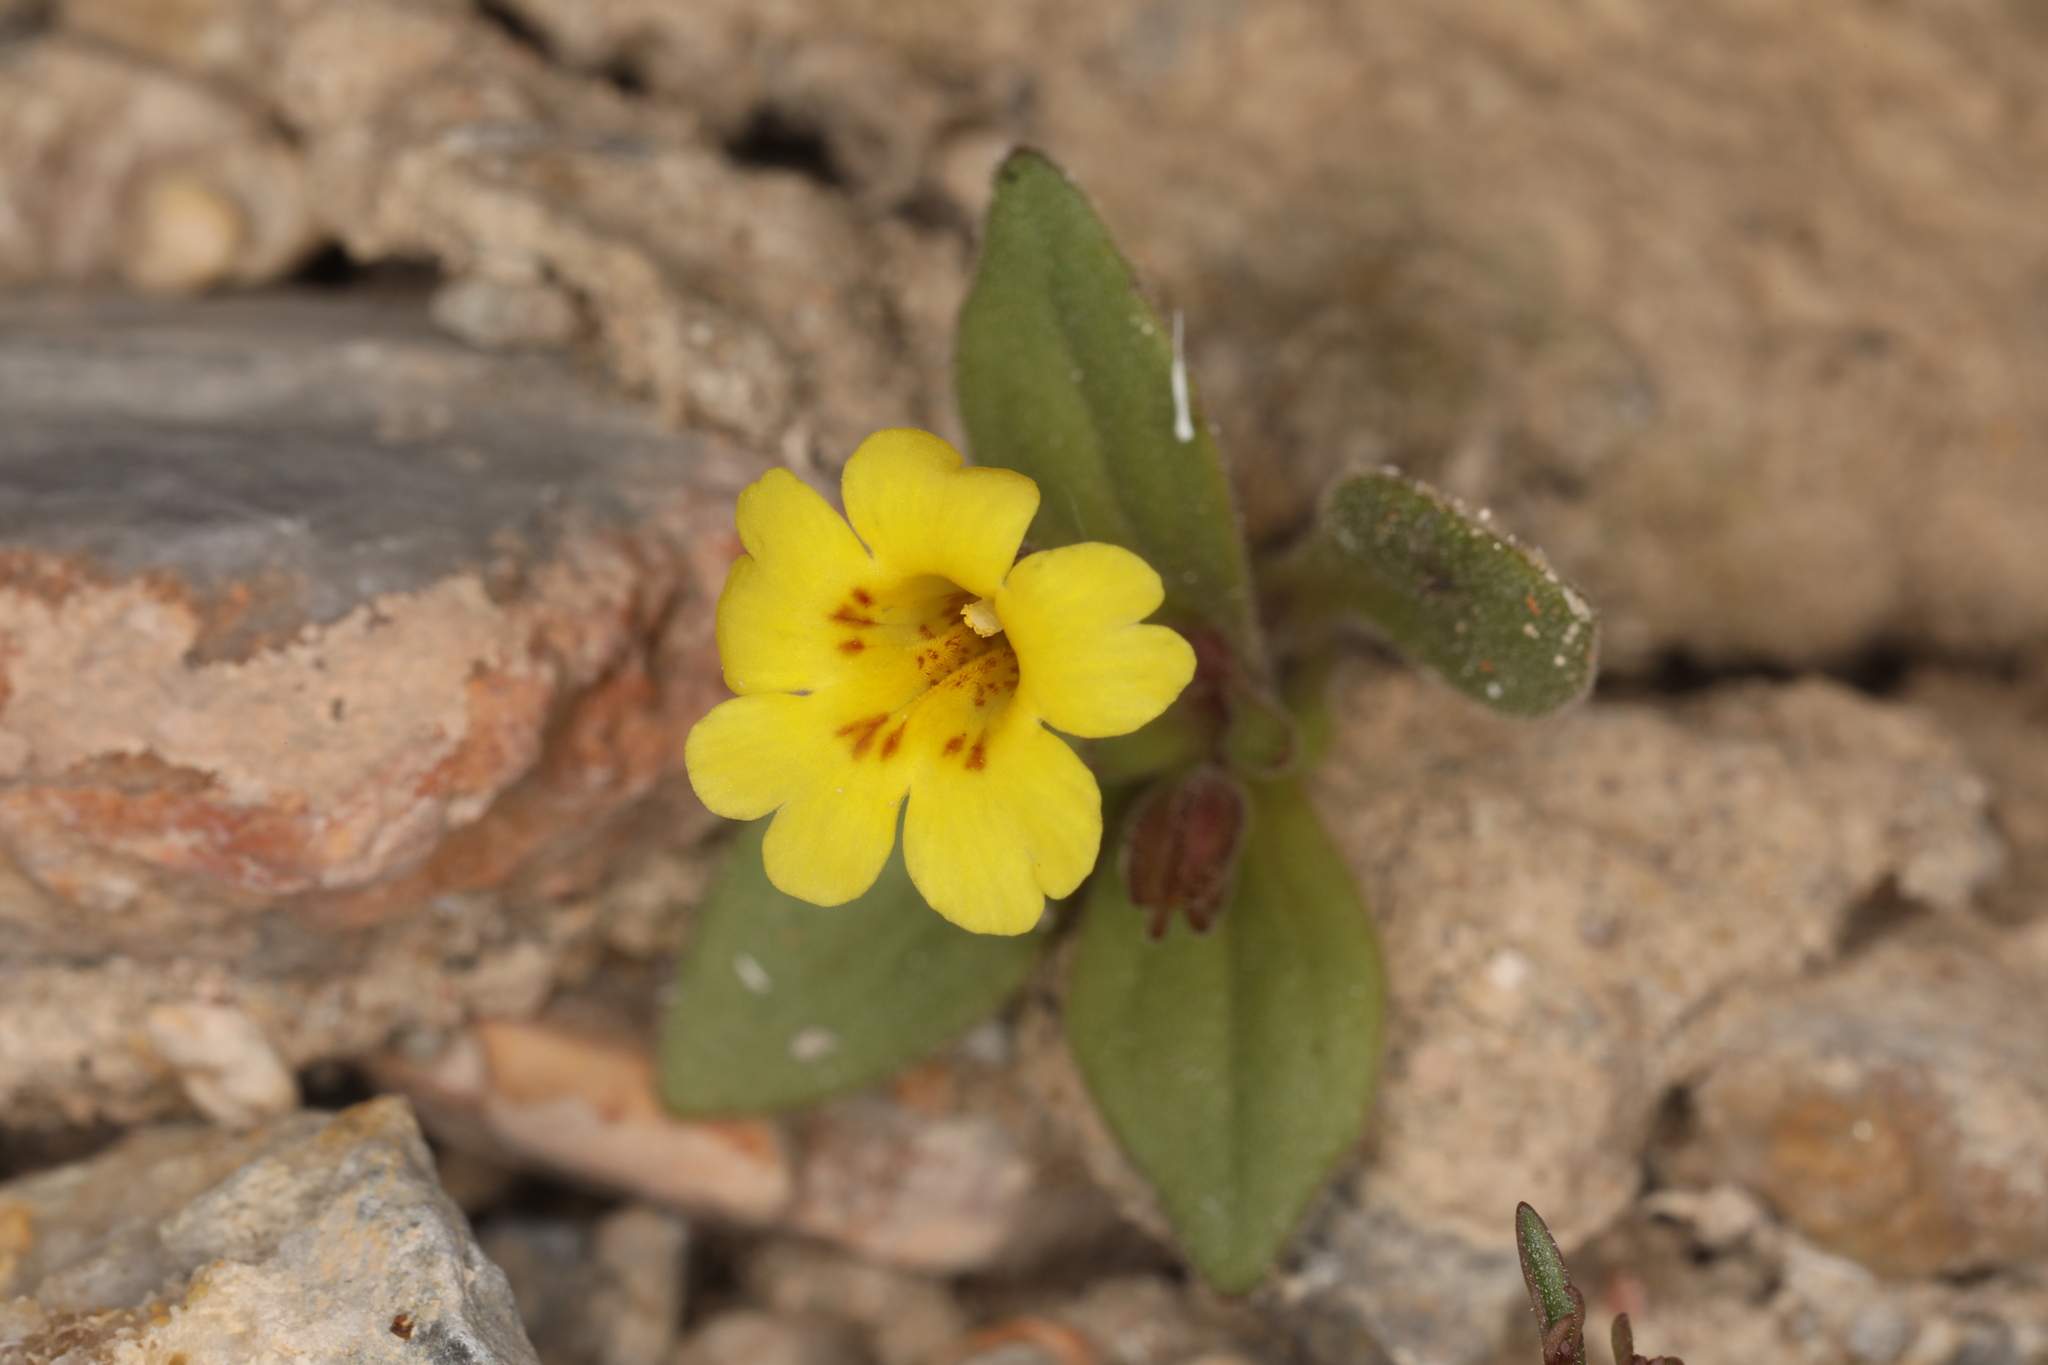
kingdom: Plantae
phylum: Tracheophyta
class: Magnoliopsida
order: Lamiales
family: Phrymaceae
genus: Erythranthe
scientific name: Erythranthe calcicola
